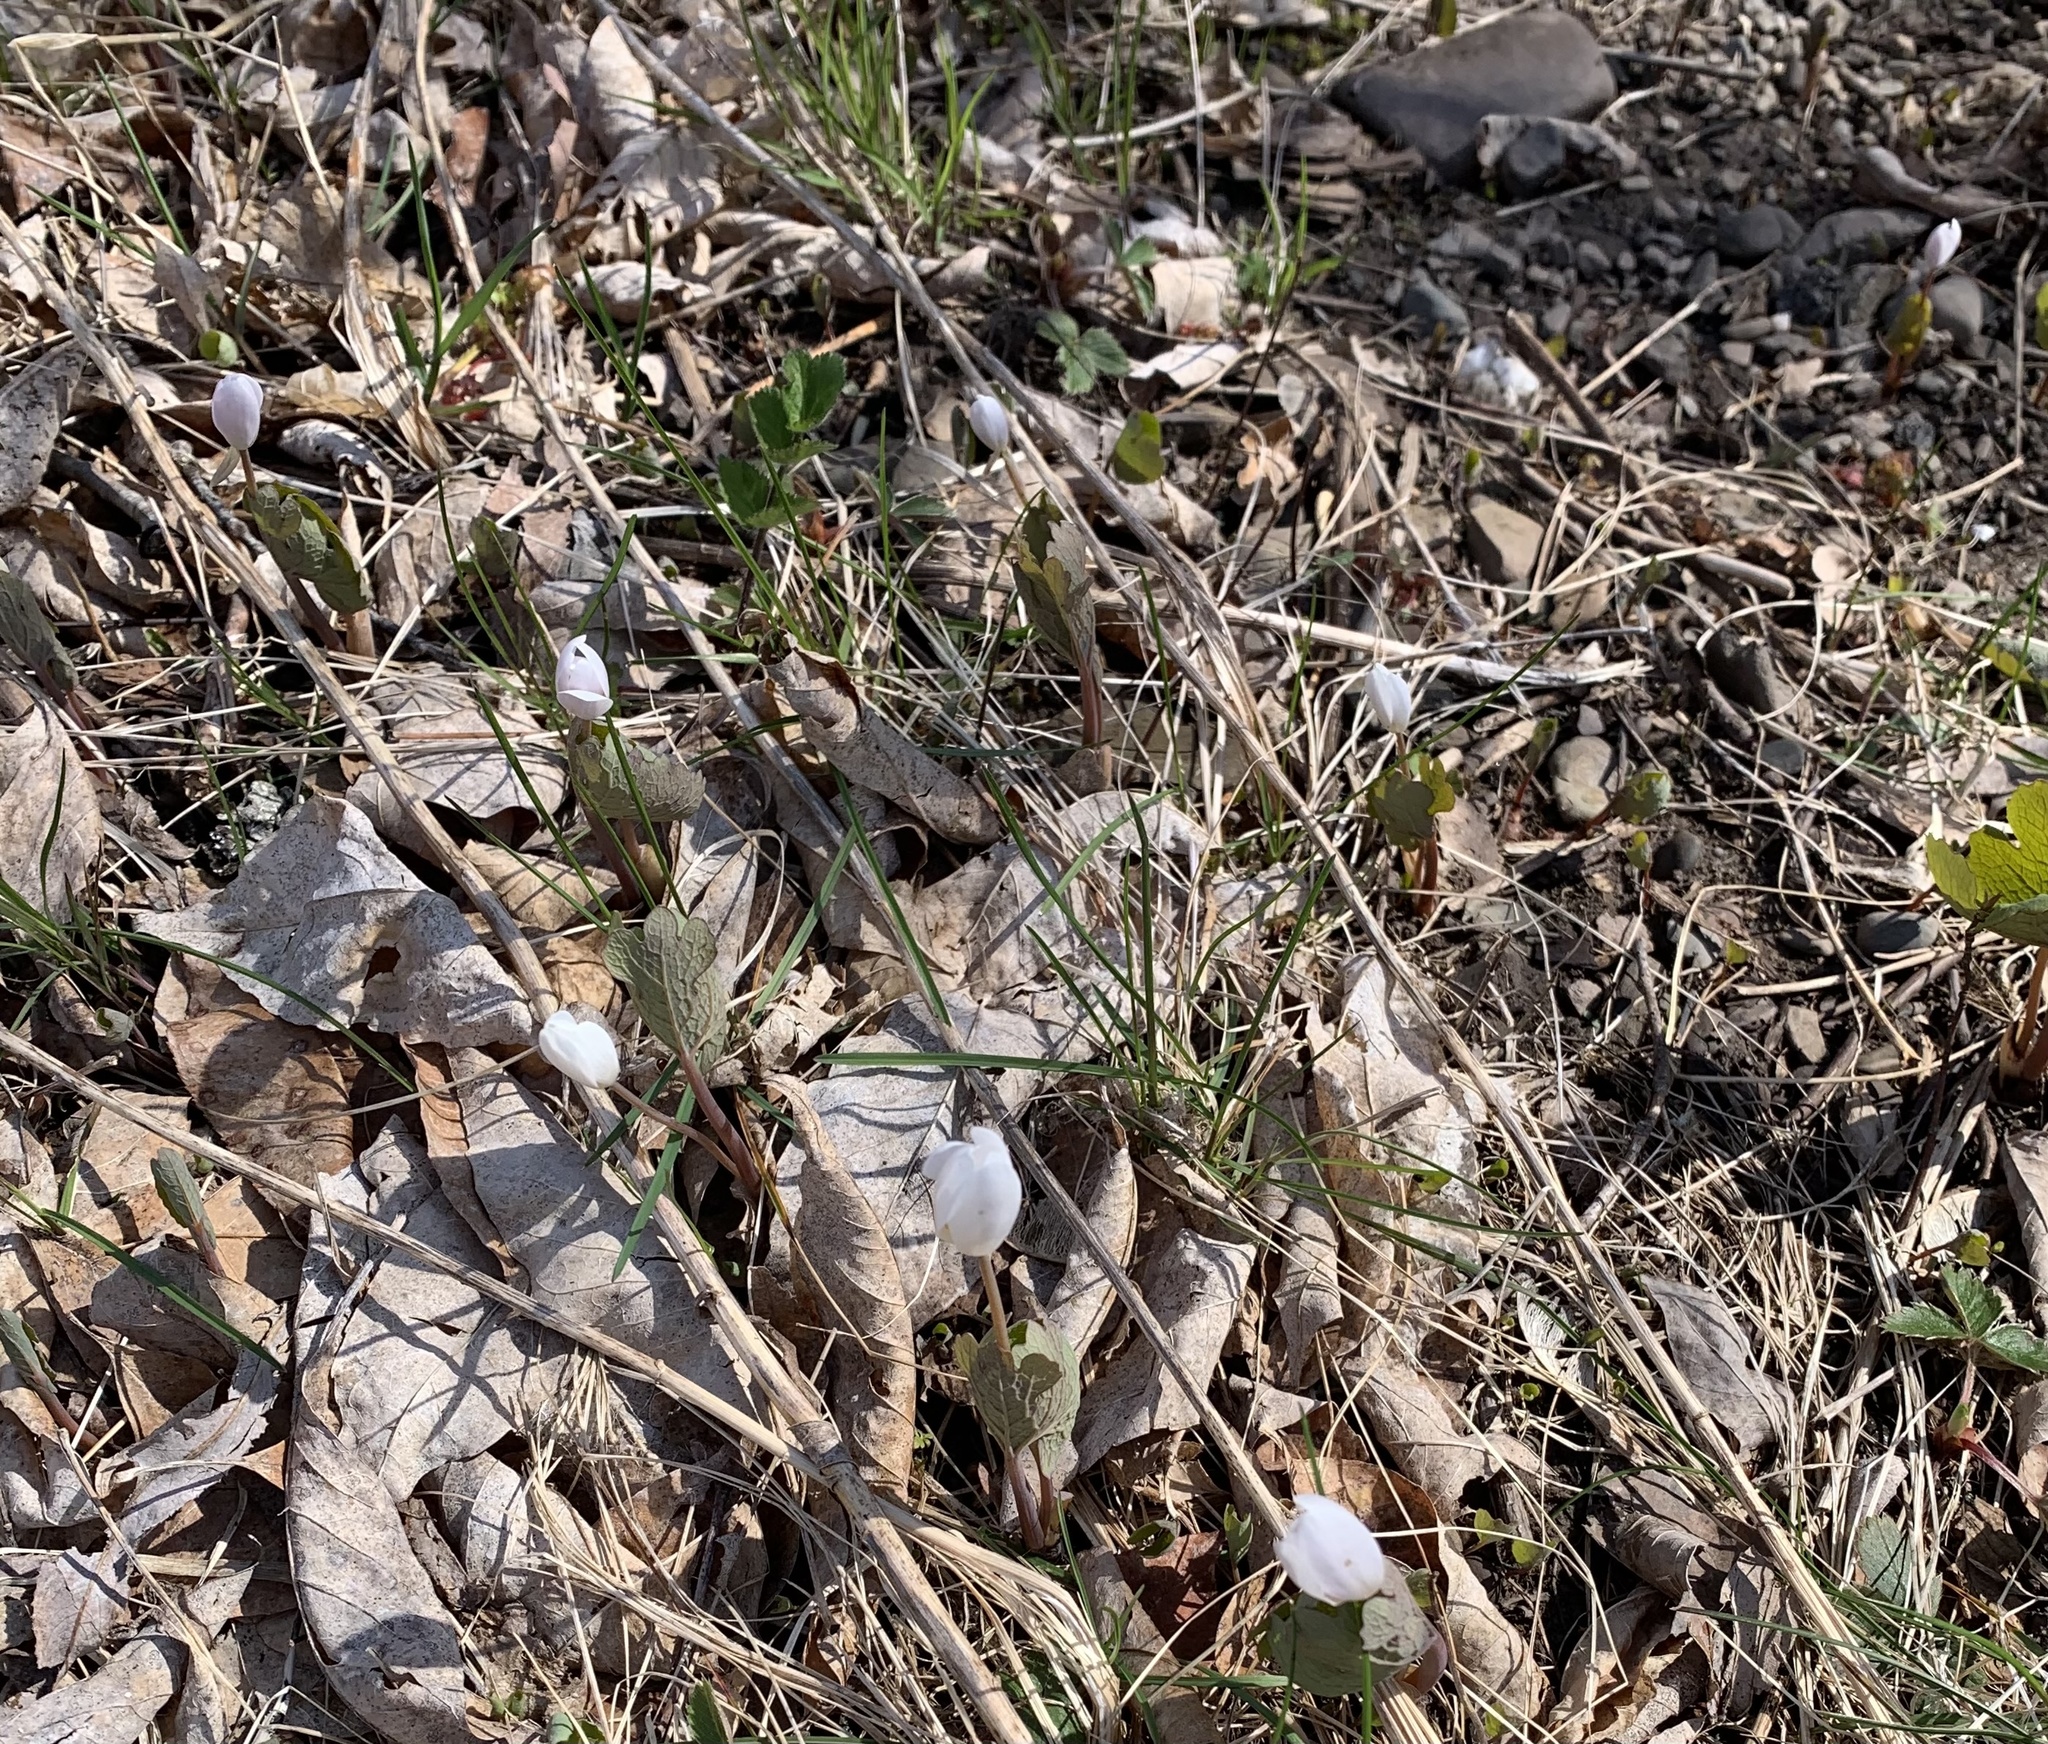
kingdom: Plantae
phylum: Tracheophyta
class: Magnoliopsida
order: Ranunculales
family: Papaveraceae
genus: Sanguinaria
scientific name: Sanguinaria canadensis
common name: Bloodroot
